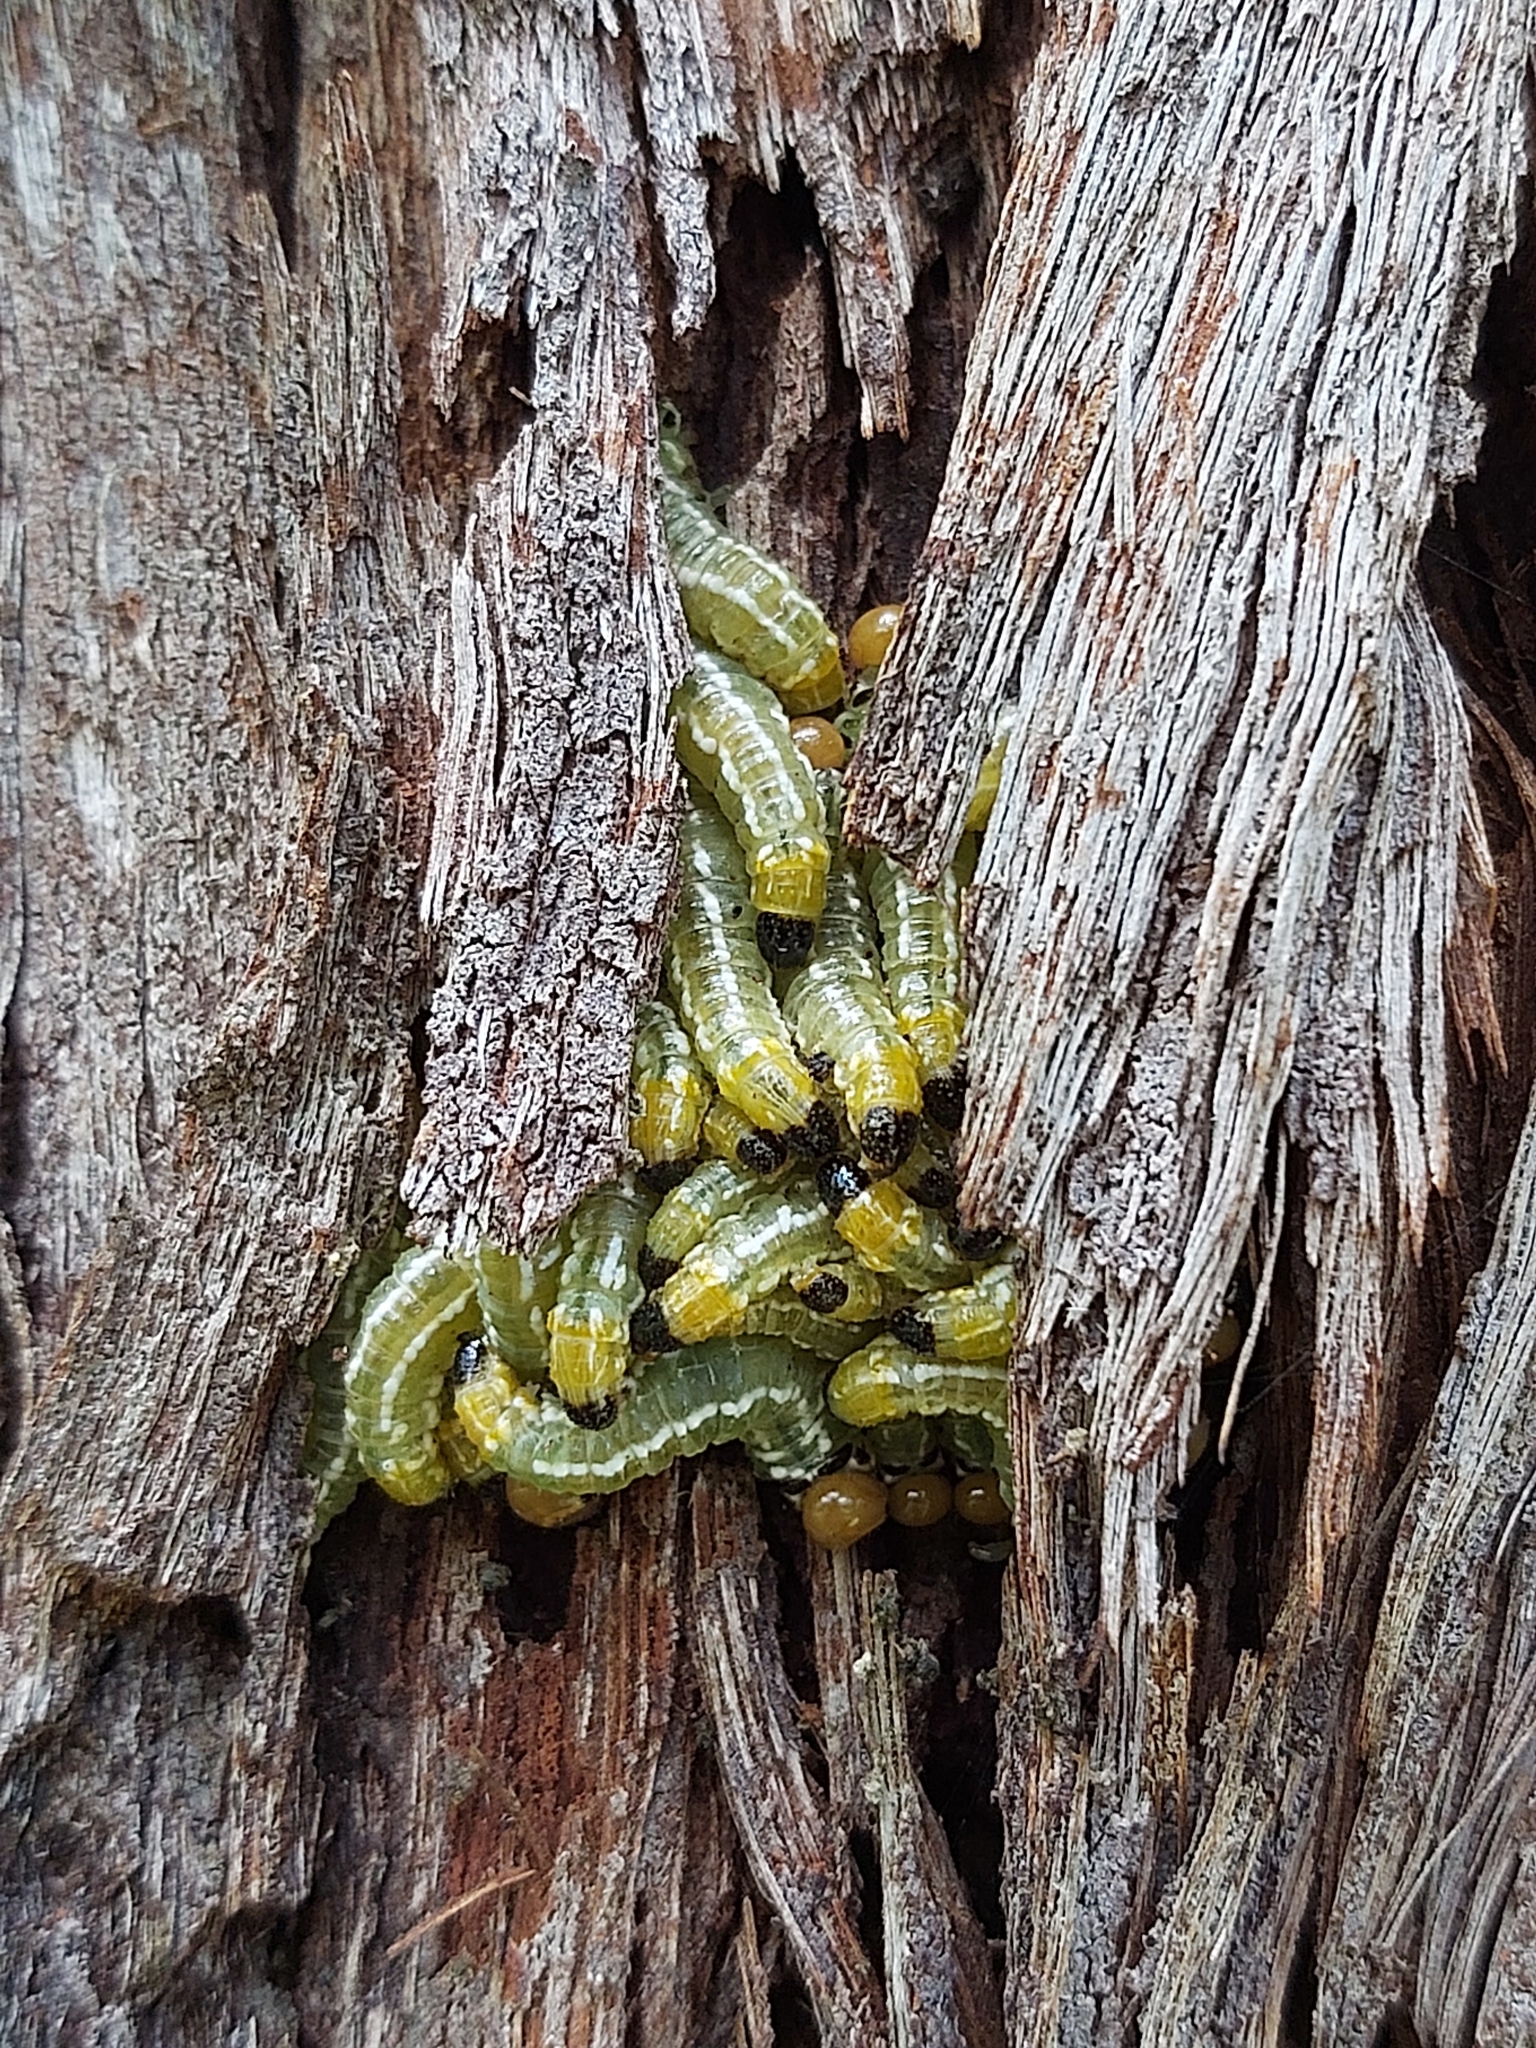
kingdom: Animalia
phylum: Arthropoda
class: Insecta
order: Hymenoptera
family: Pergidae
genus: Pteryperga
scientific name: Pteryperga galla
